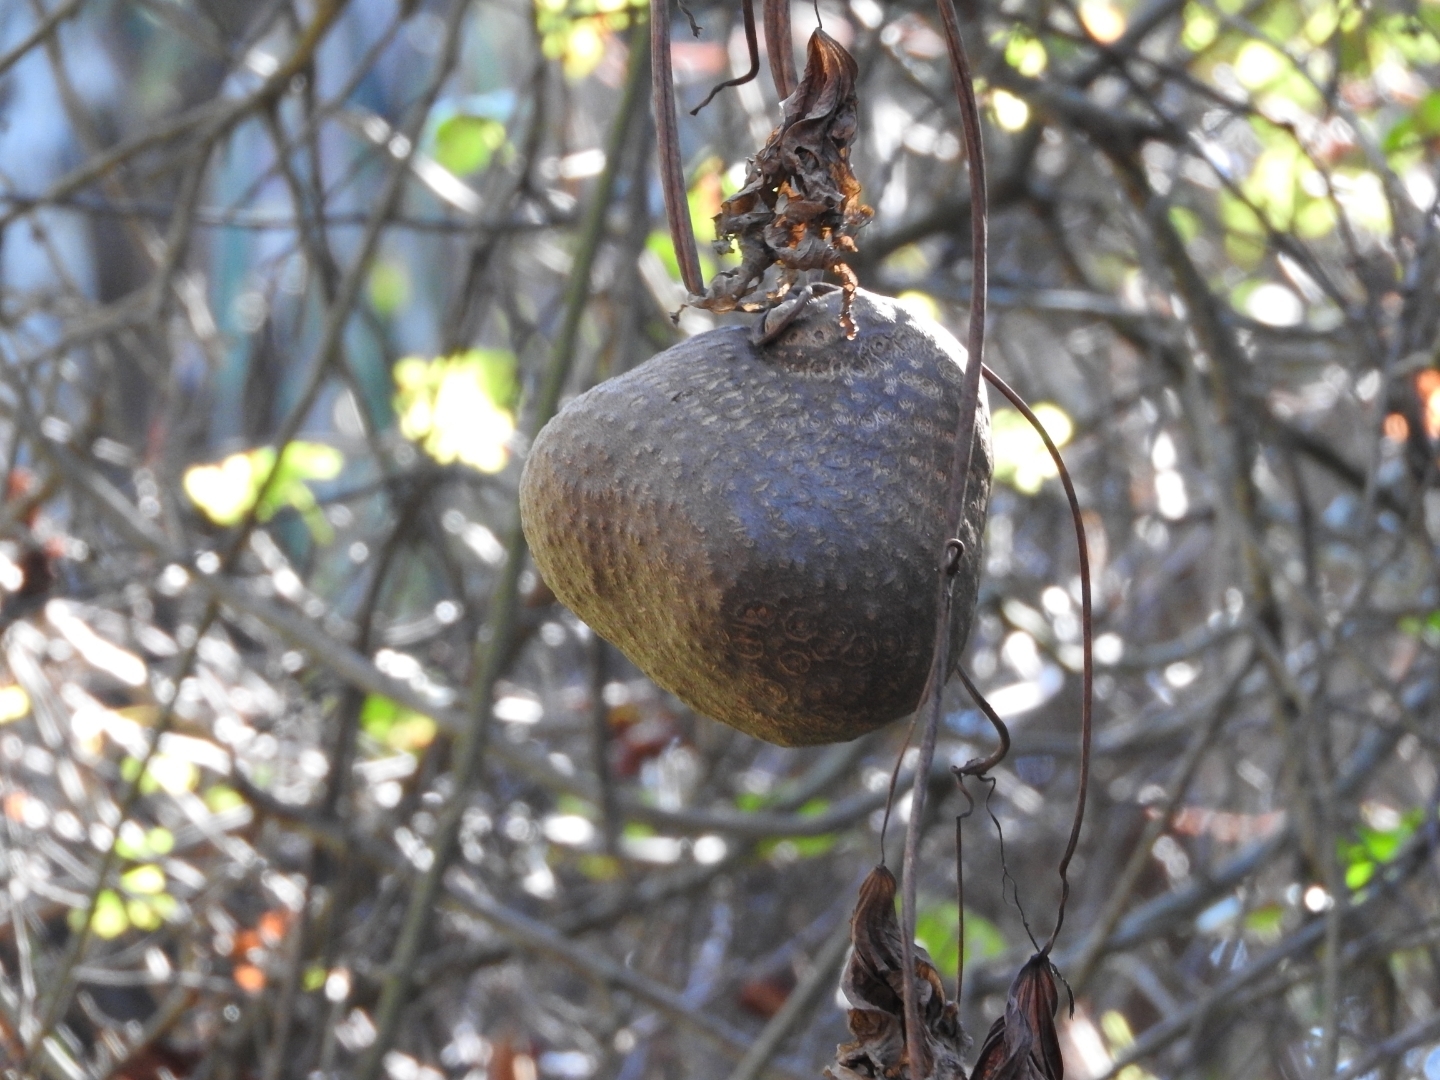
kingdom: Plantae
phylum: Tracheophyta
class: Liliopsida
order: Dioscoreales
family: Dioscoreaceae
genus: Dioscorea
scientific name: Dioscorea bulbifera
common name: Air yam
